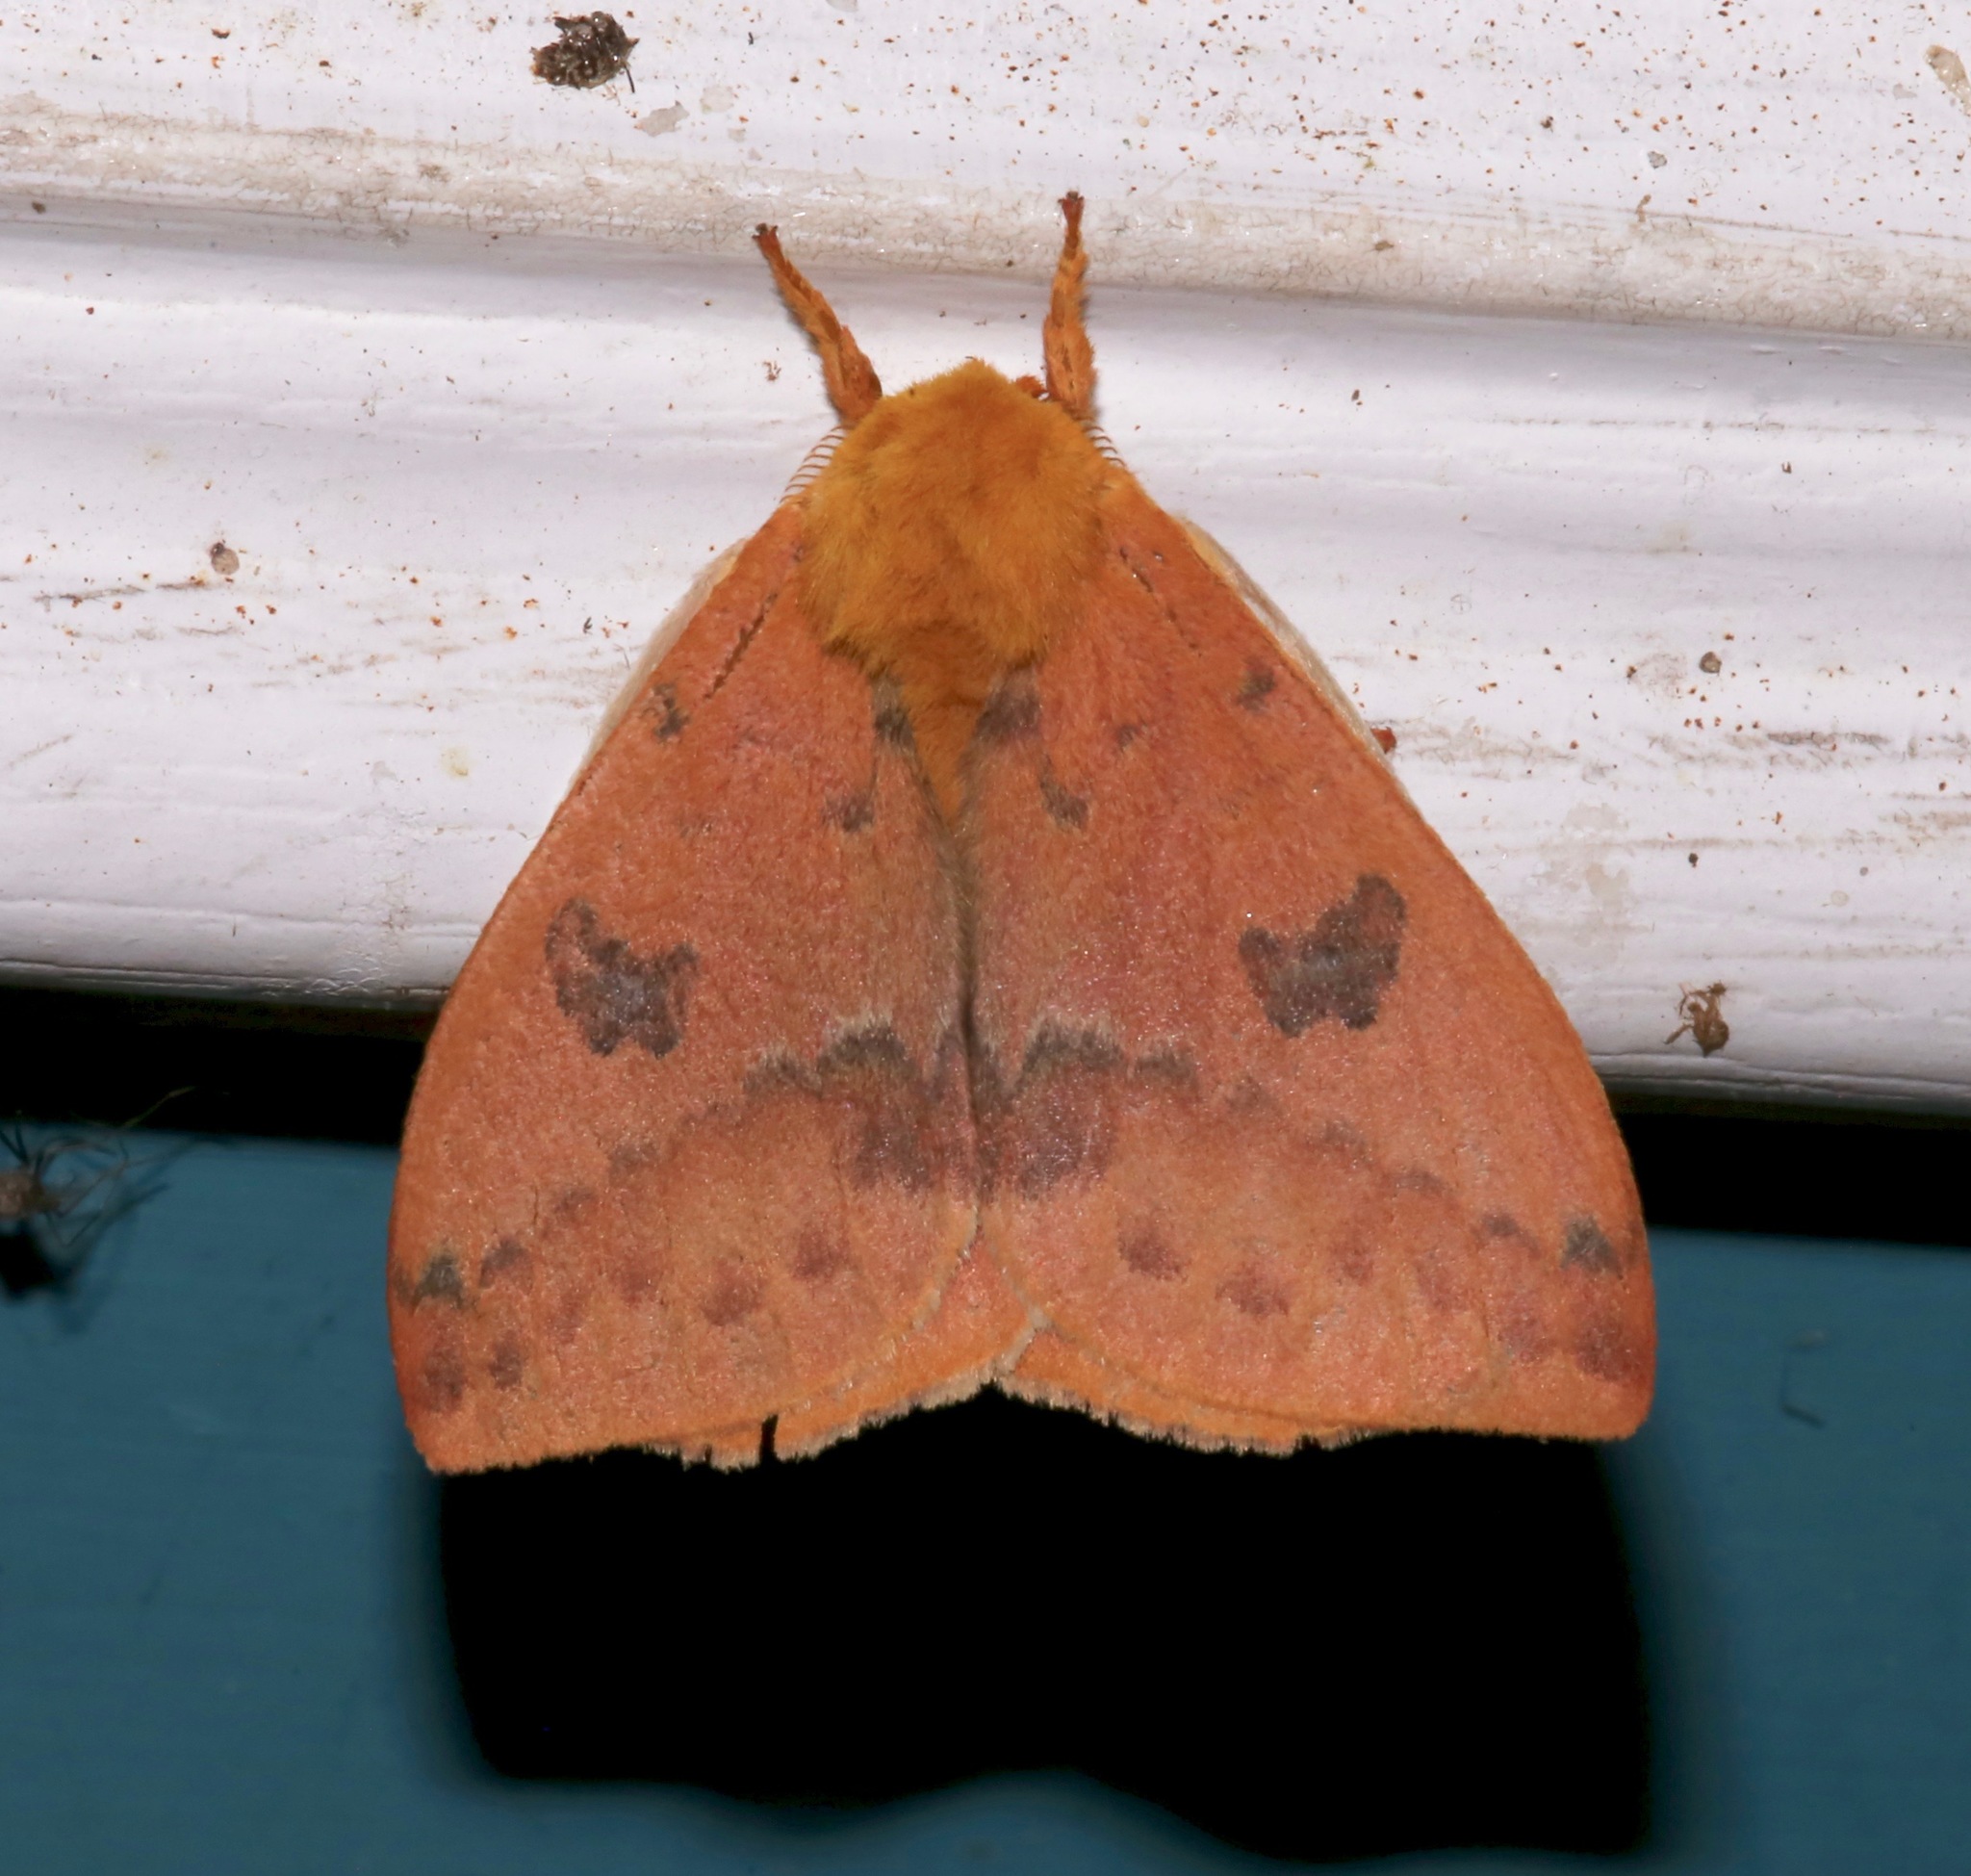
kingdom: Animalia
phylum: Arthropoda
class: Insecta
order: Lepidoptera
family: Saturniidae
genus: Automeris
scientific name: Automeris io
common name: Io moth
